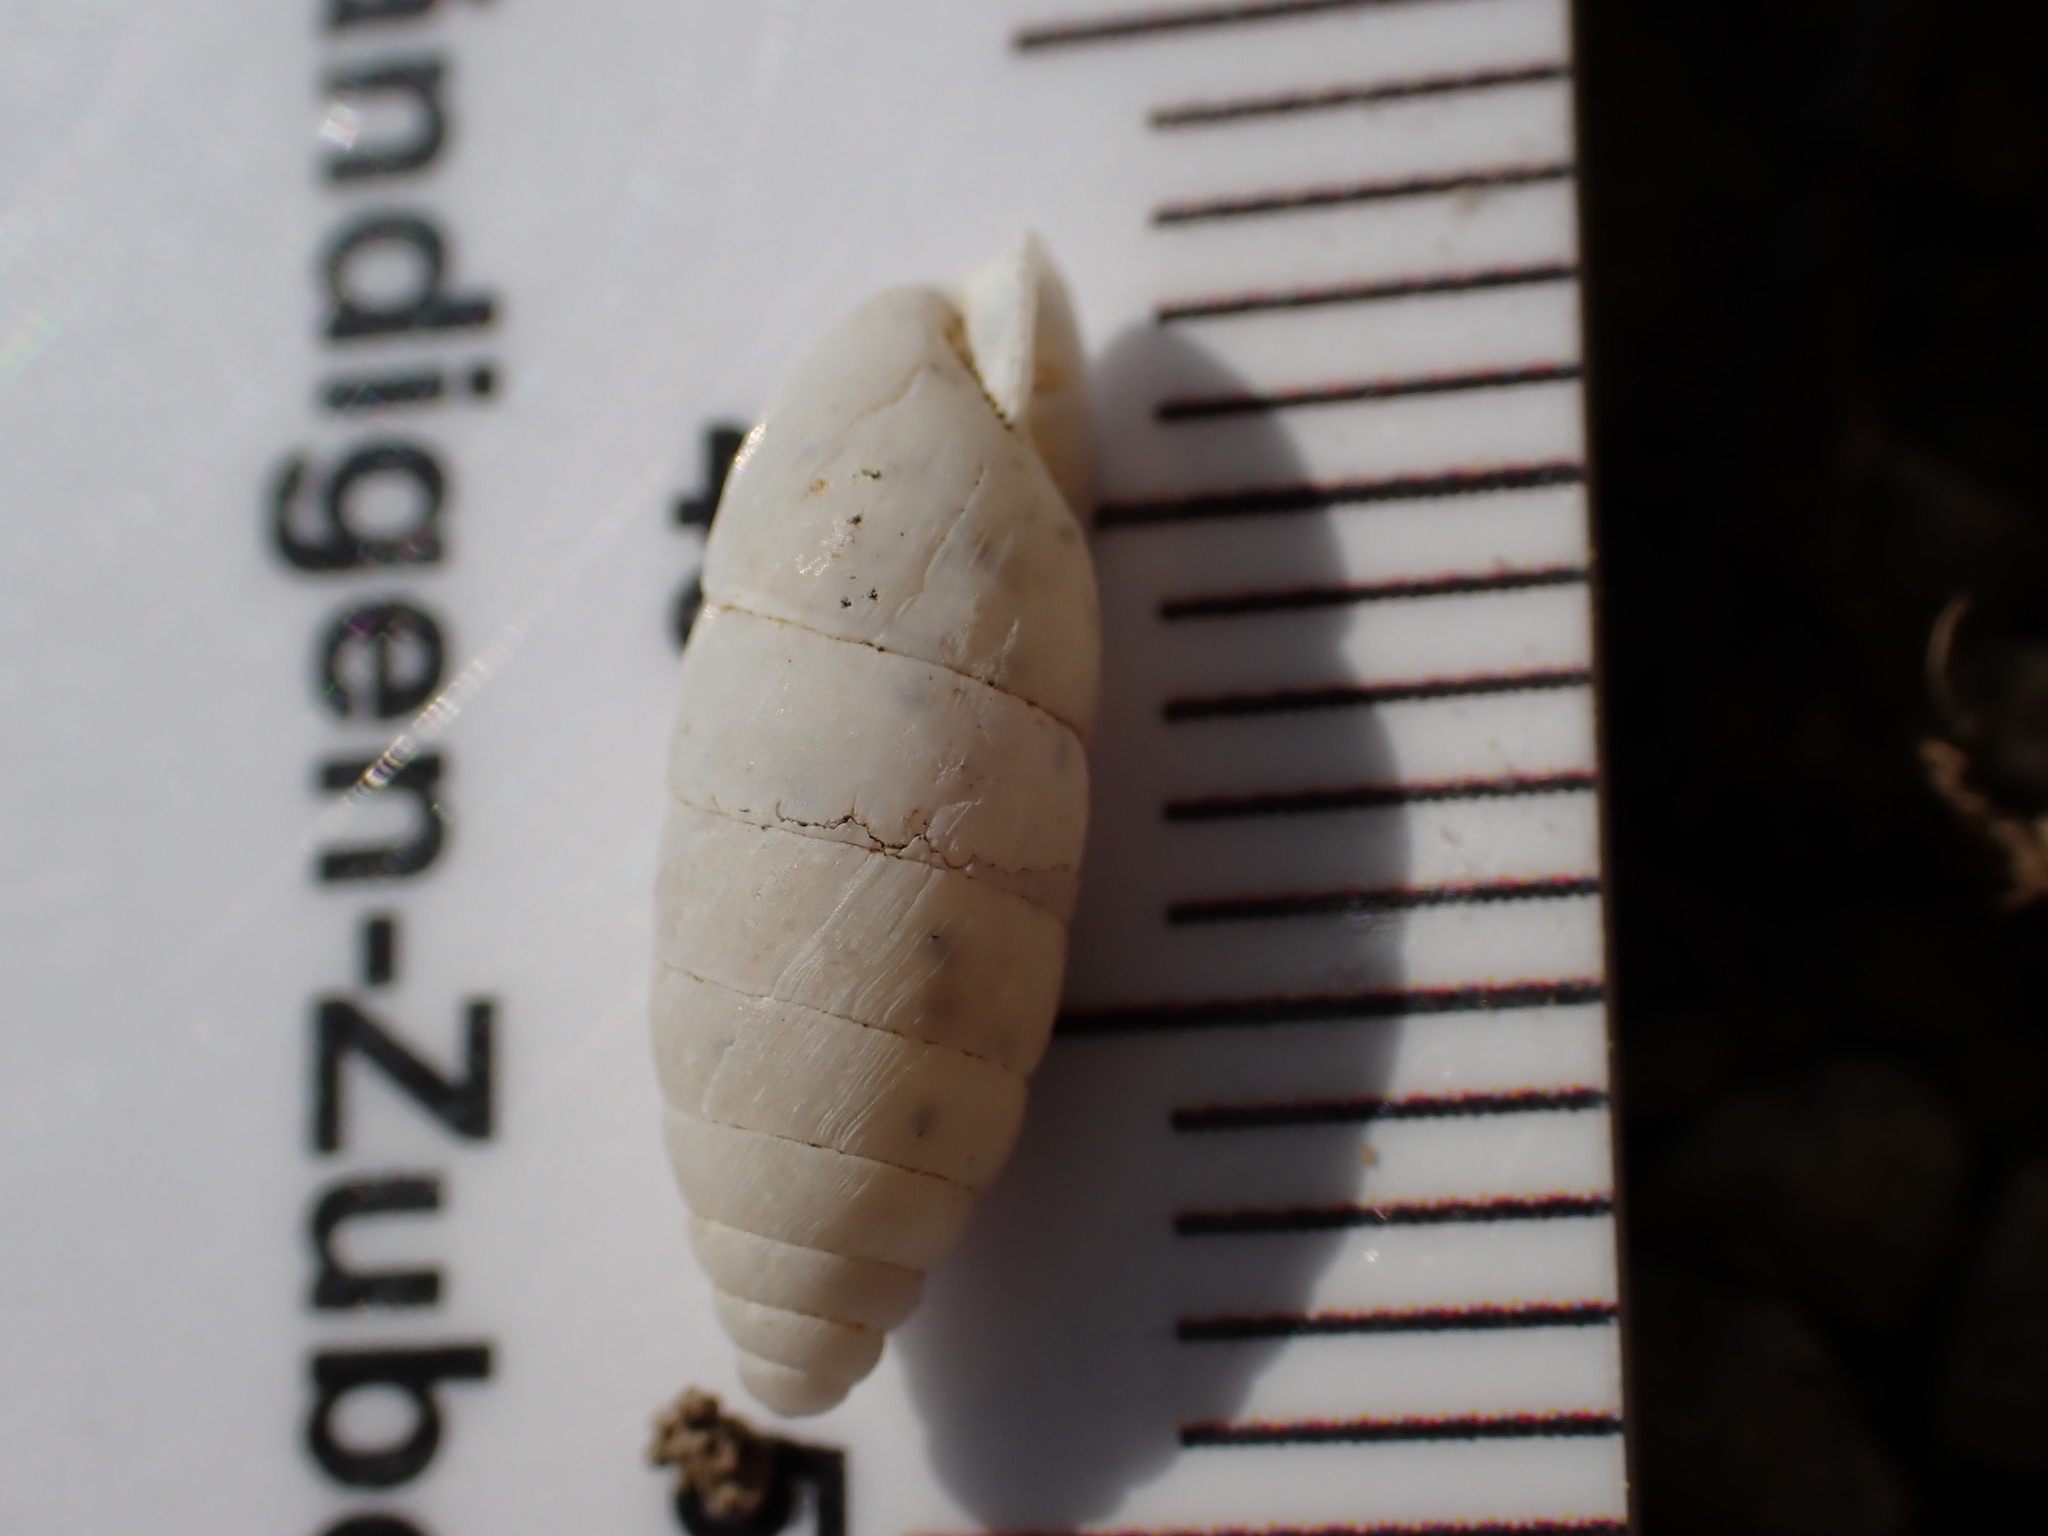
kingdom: Animalia
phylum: Mollusca
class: Gastropoda
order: Stylommatophora
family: Enidae
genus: Jaminia
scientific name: Jaminia quadridens
